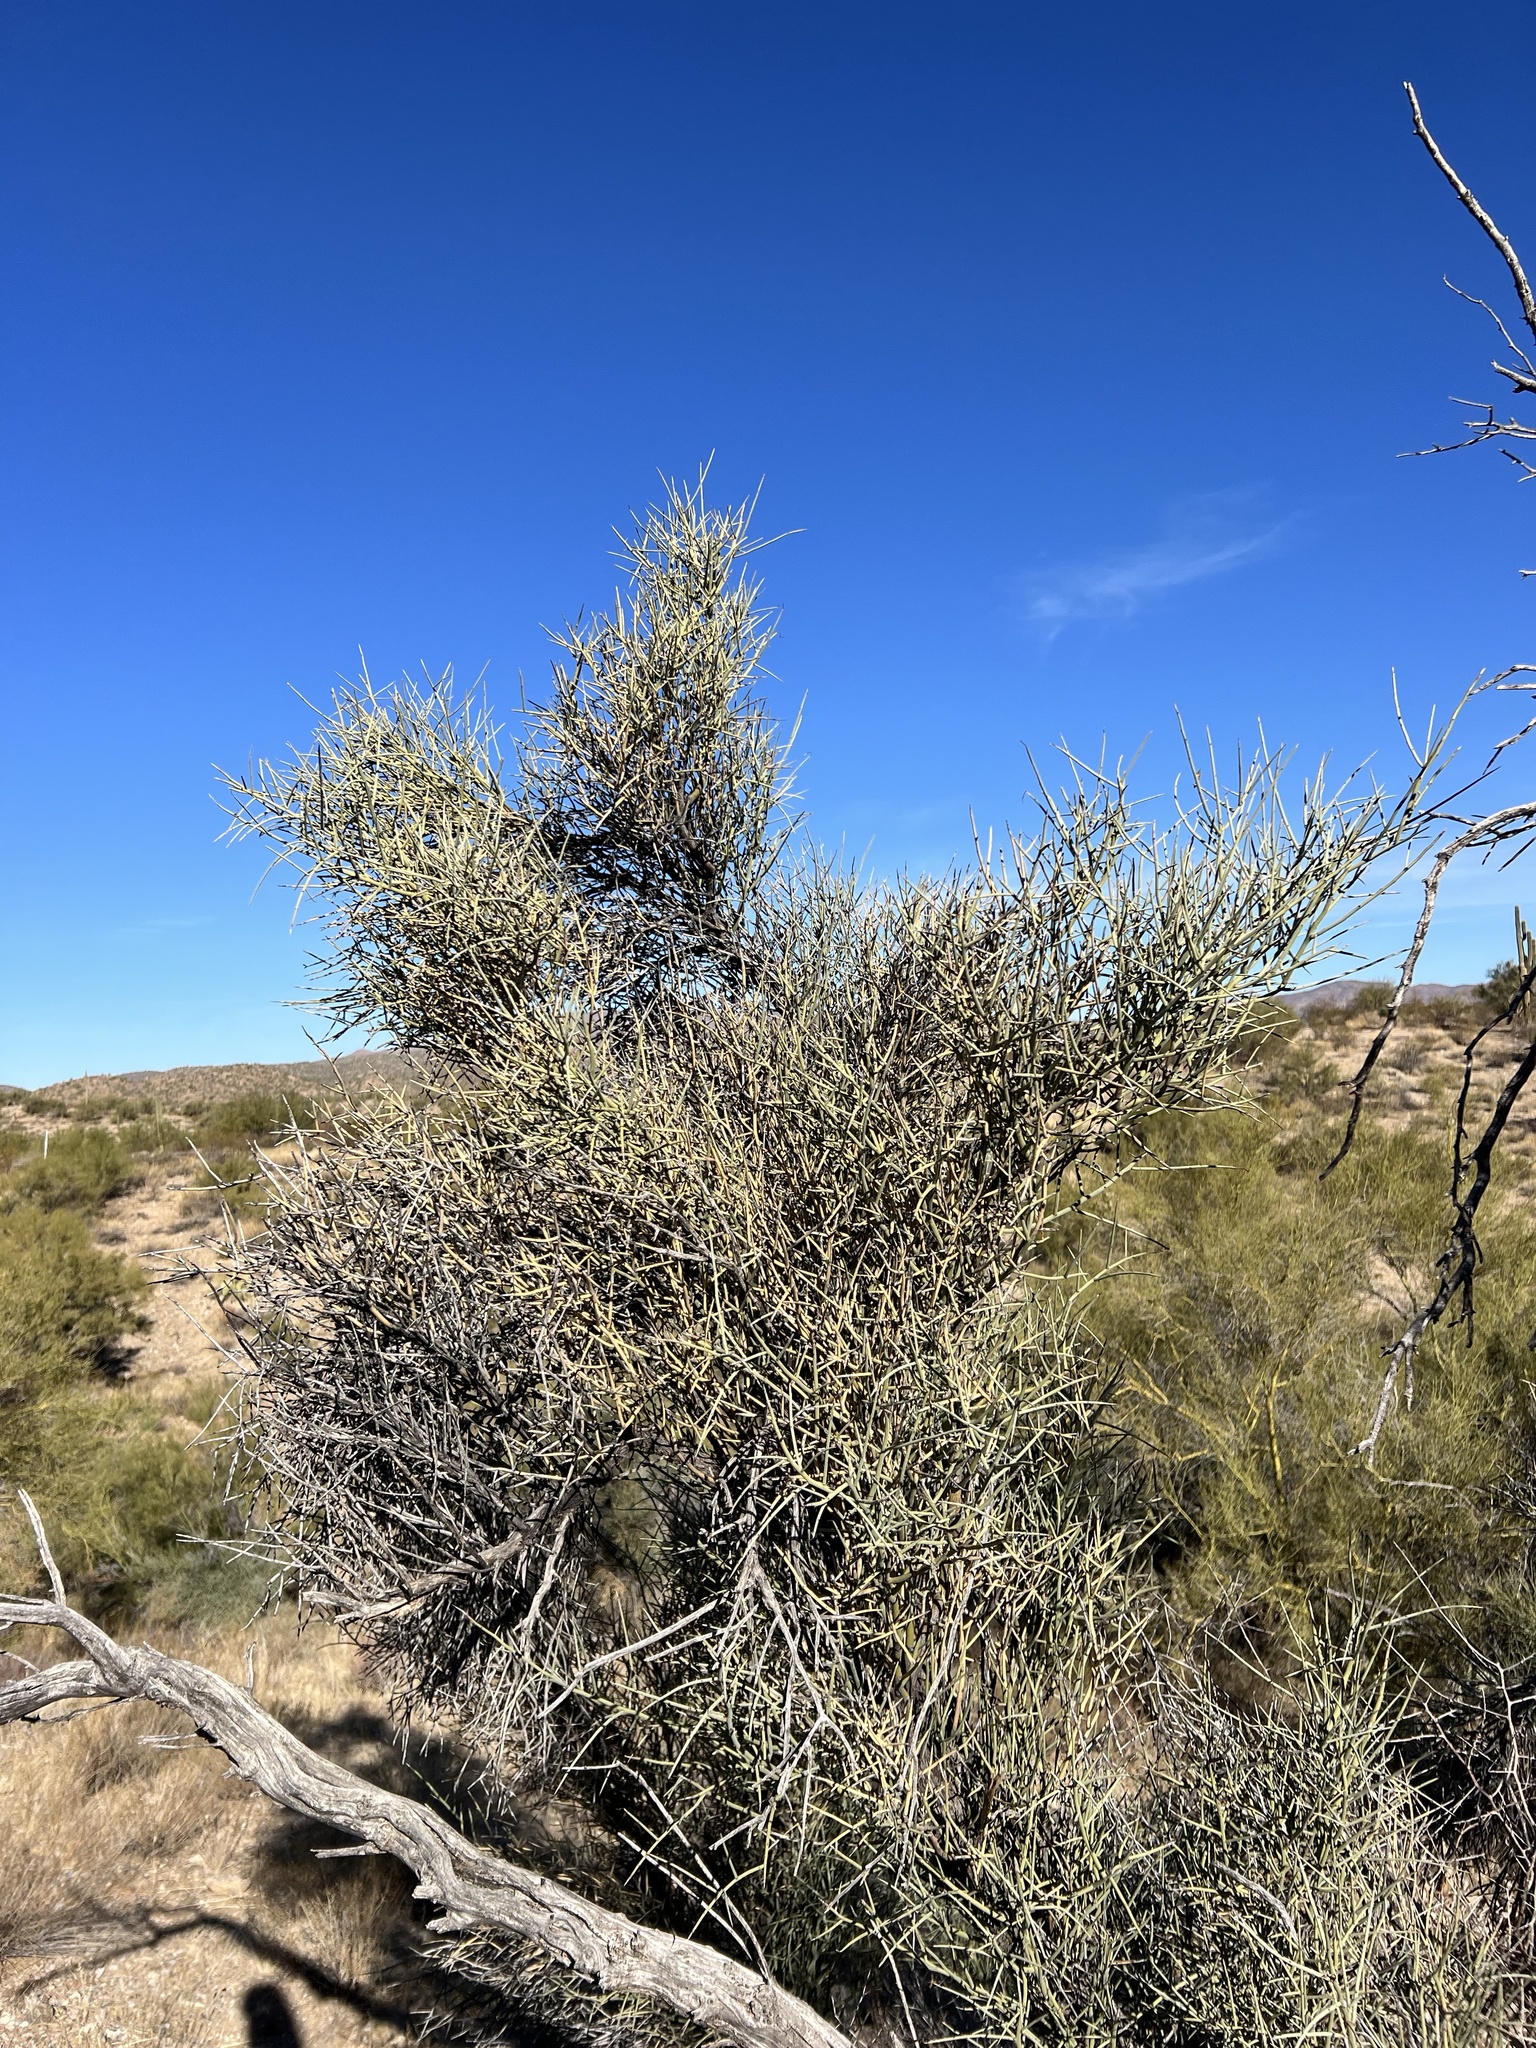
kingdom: Plantae
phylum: Tracheophyta
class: Magnoliopsida
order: Celastrales
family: Celastraceae
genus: Canotia
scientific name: Canotia holacantha
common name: Crucifixion thorns
